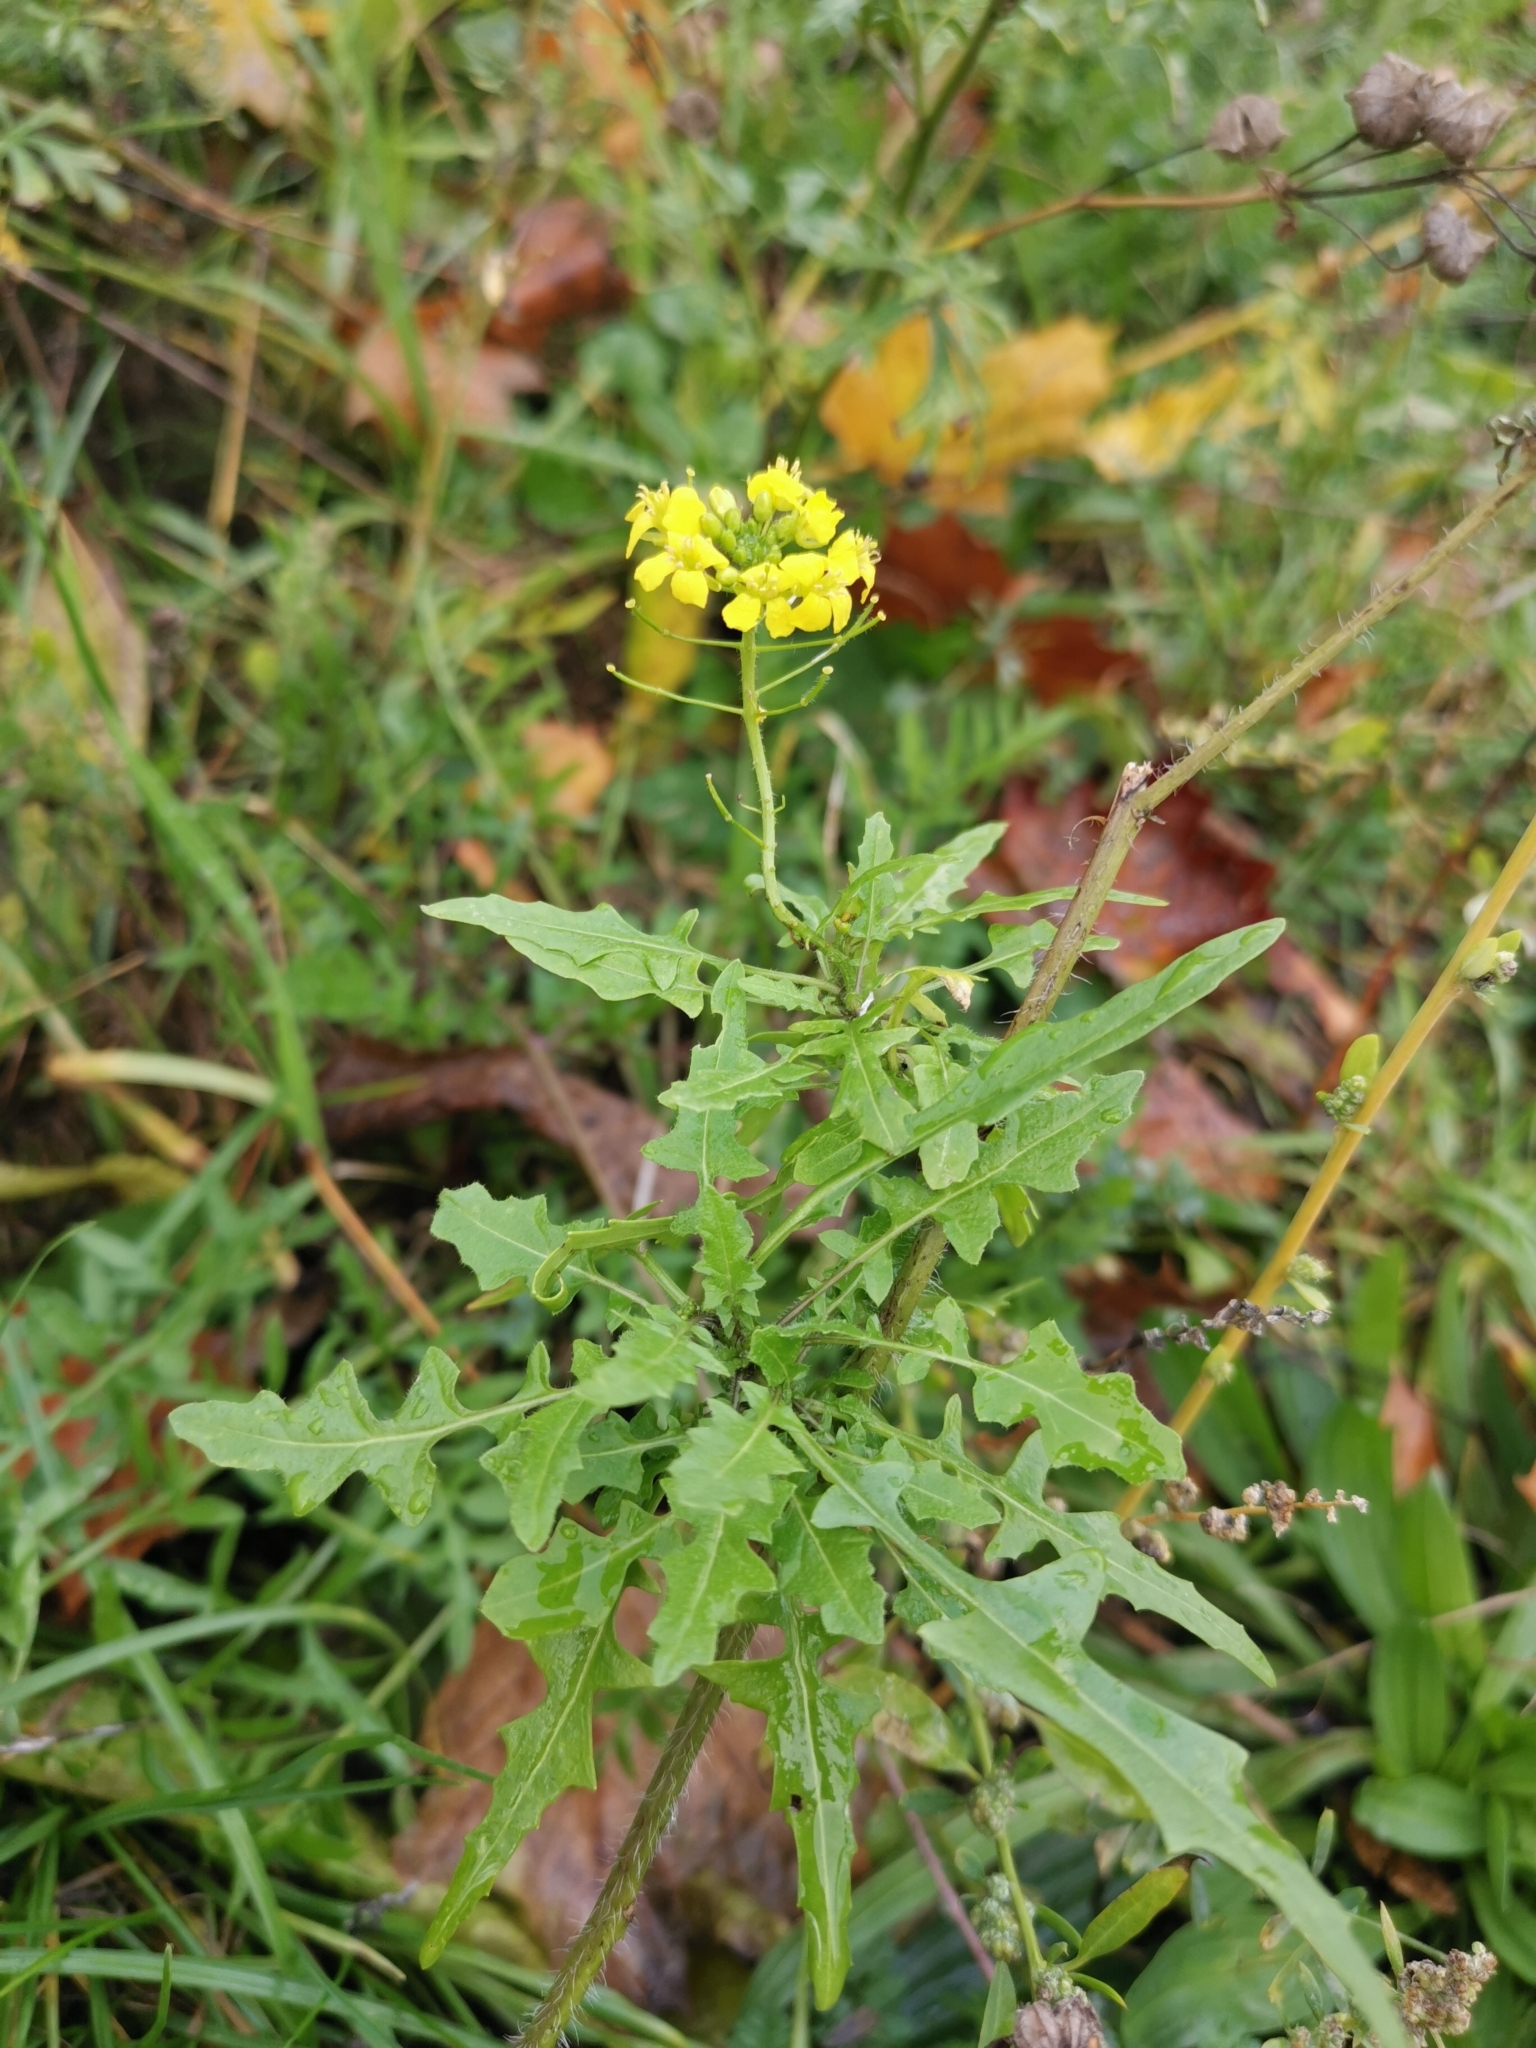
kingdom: Plantae
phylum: Tracheophyta
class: Magnoliopsida
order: Brassicales
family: Brassicaceae
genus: Sisymbrium
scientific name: Sisymbrium loeselii
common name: False london-rocket
